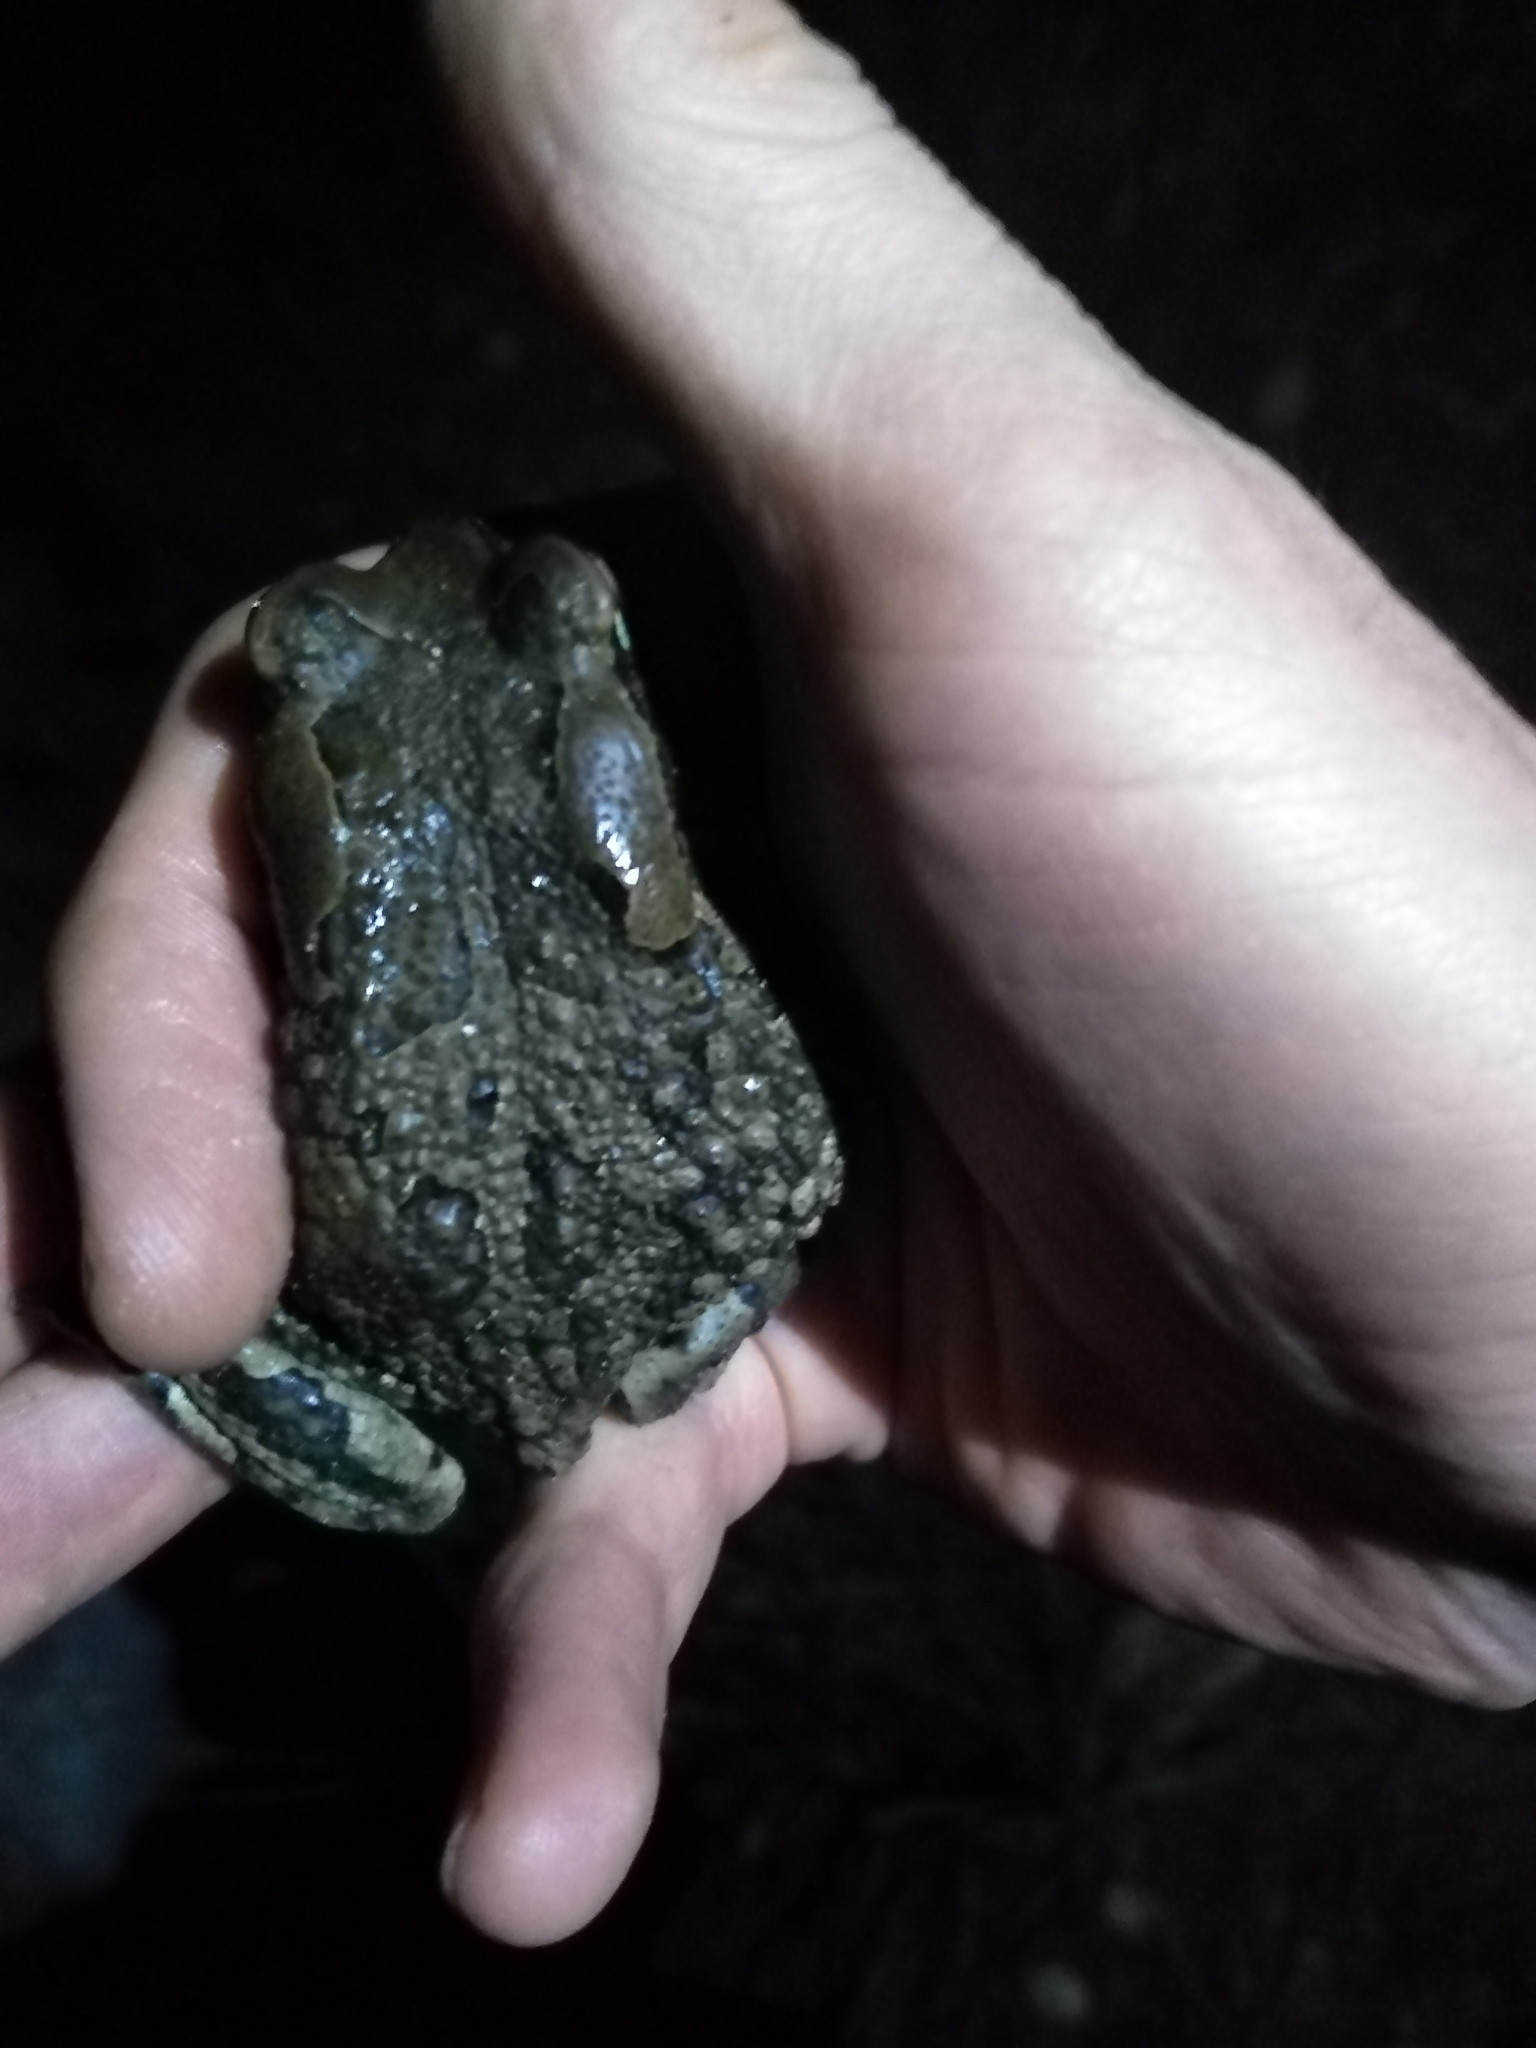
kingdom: Animalia
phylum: Chordata
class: Amphibia
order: Anura
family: Bufonidae
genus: Sclerophrys
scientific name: Sclerophrys capensis
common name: Ranger’s toad
